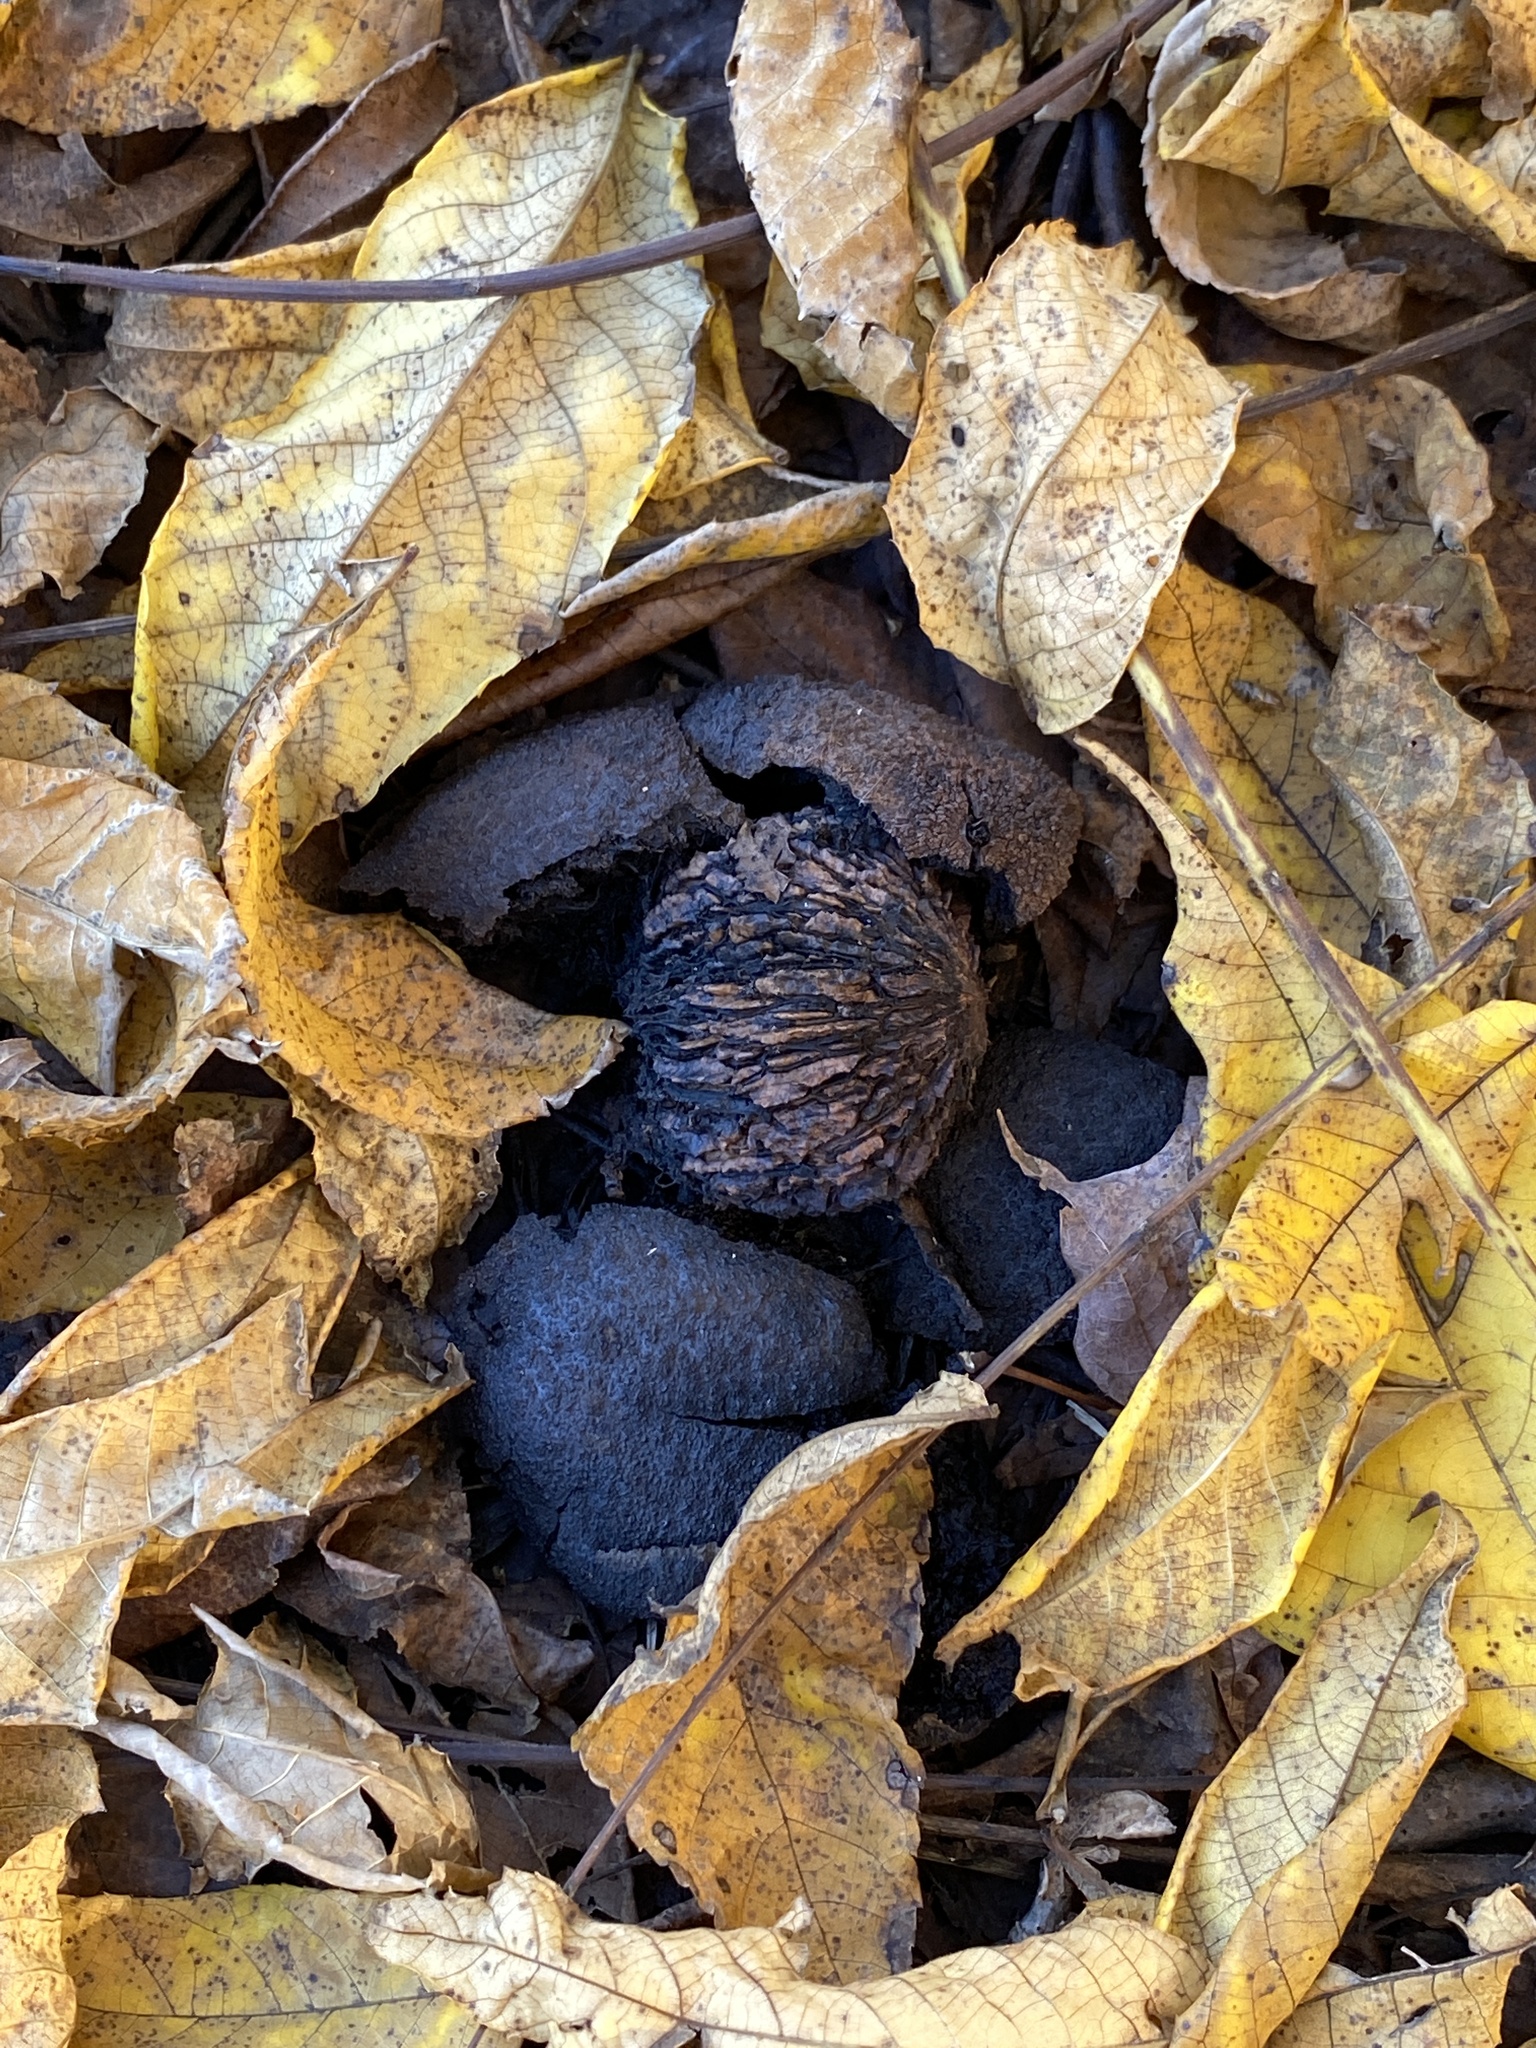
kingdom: Plantae
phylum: Tracheophyta
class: Magnoliopsida
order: Fagales
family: Juglandaceae
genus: Juglans
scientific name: Juglans nigra
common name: Black walnut
